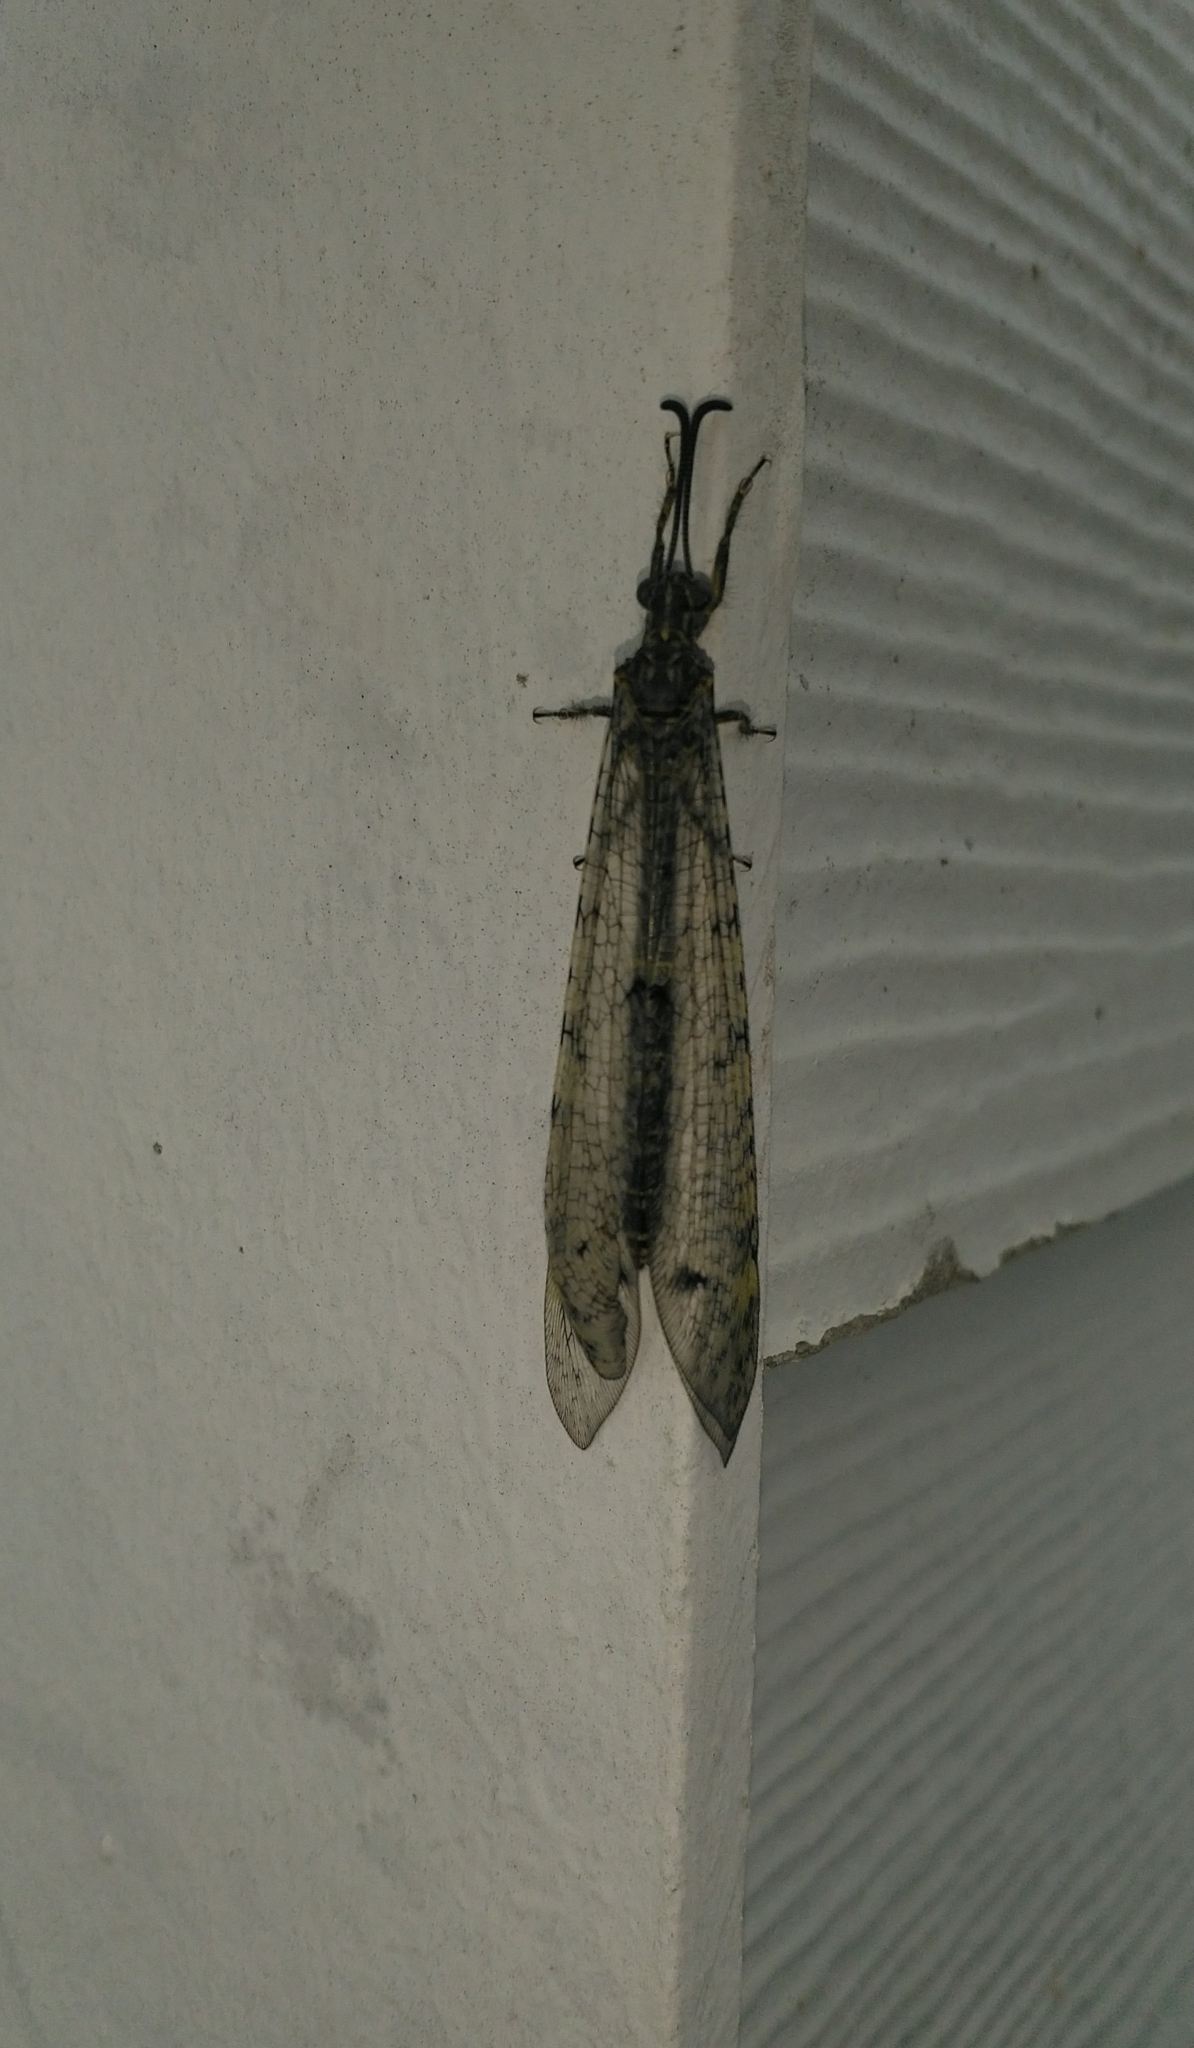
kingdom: Animalia
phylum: Arthropoda
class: Insecta
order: Neuroptera
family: Myrmeleontidae
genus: Distoleon
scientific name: Distoleon tetragrammicus
